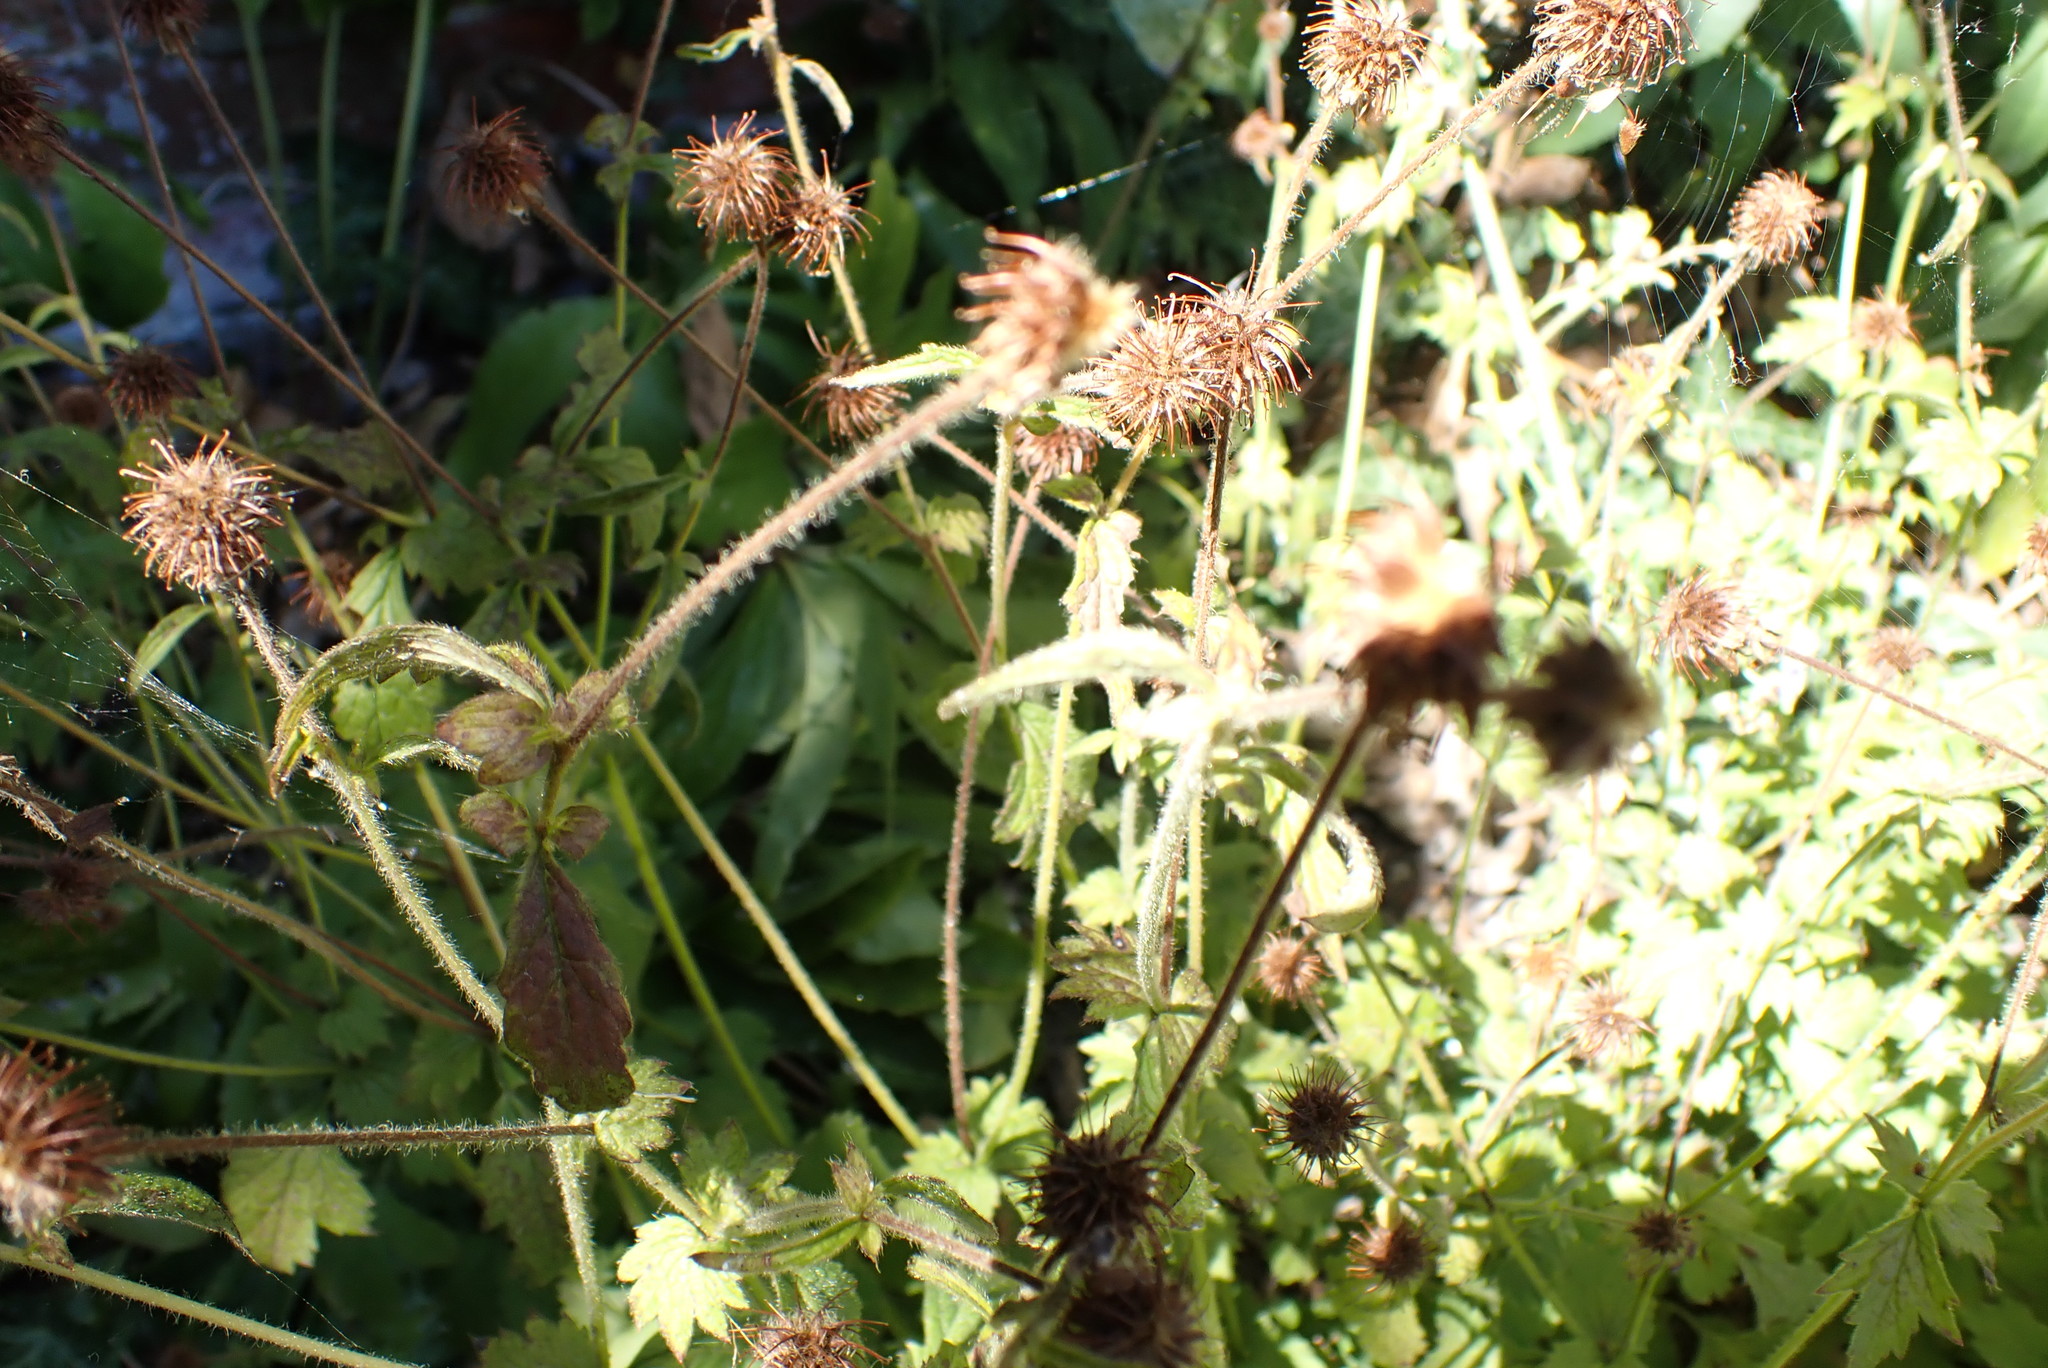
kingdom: Plantae
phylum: Tracheophyta
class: Magnoliopsida
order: Rosales
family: Rosaceae
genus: Geum
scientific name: Geum urbanum
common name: Wood avens
